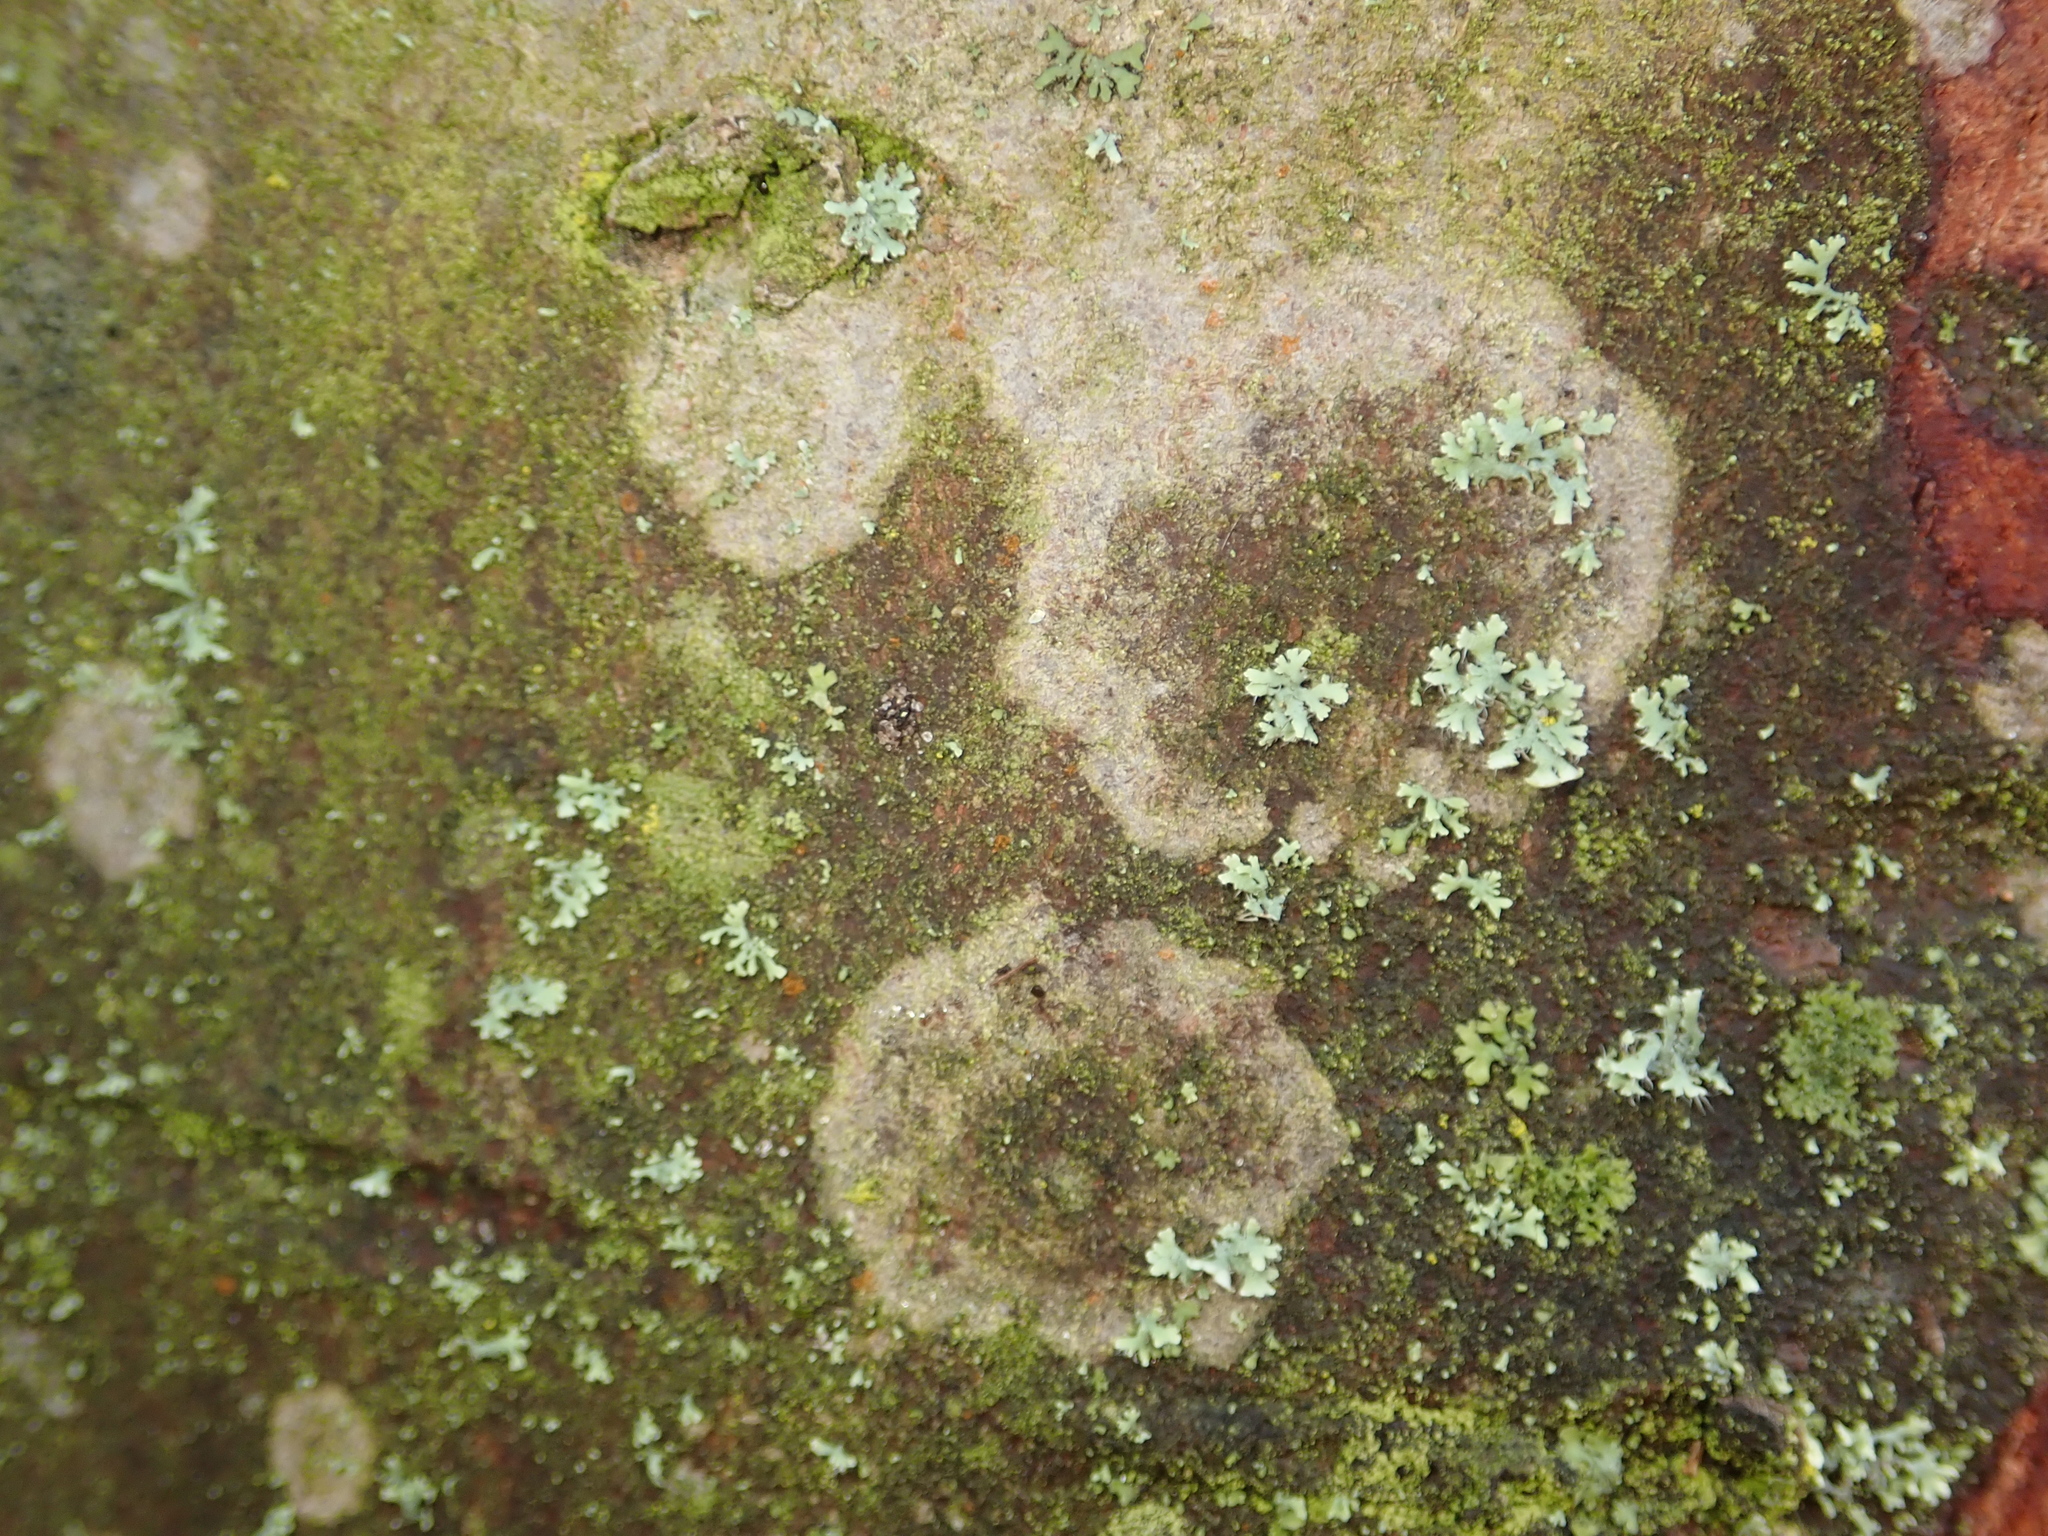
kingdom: Fungi
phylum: Basidiomycota
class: Agaricomycetes
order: Atheliales
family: Atheliaceae
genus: Athelia
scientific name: Athelia arachnoidea
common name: Candelabra duster
